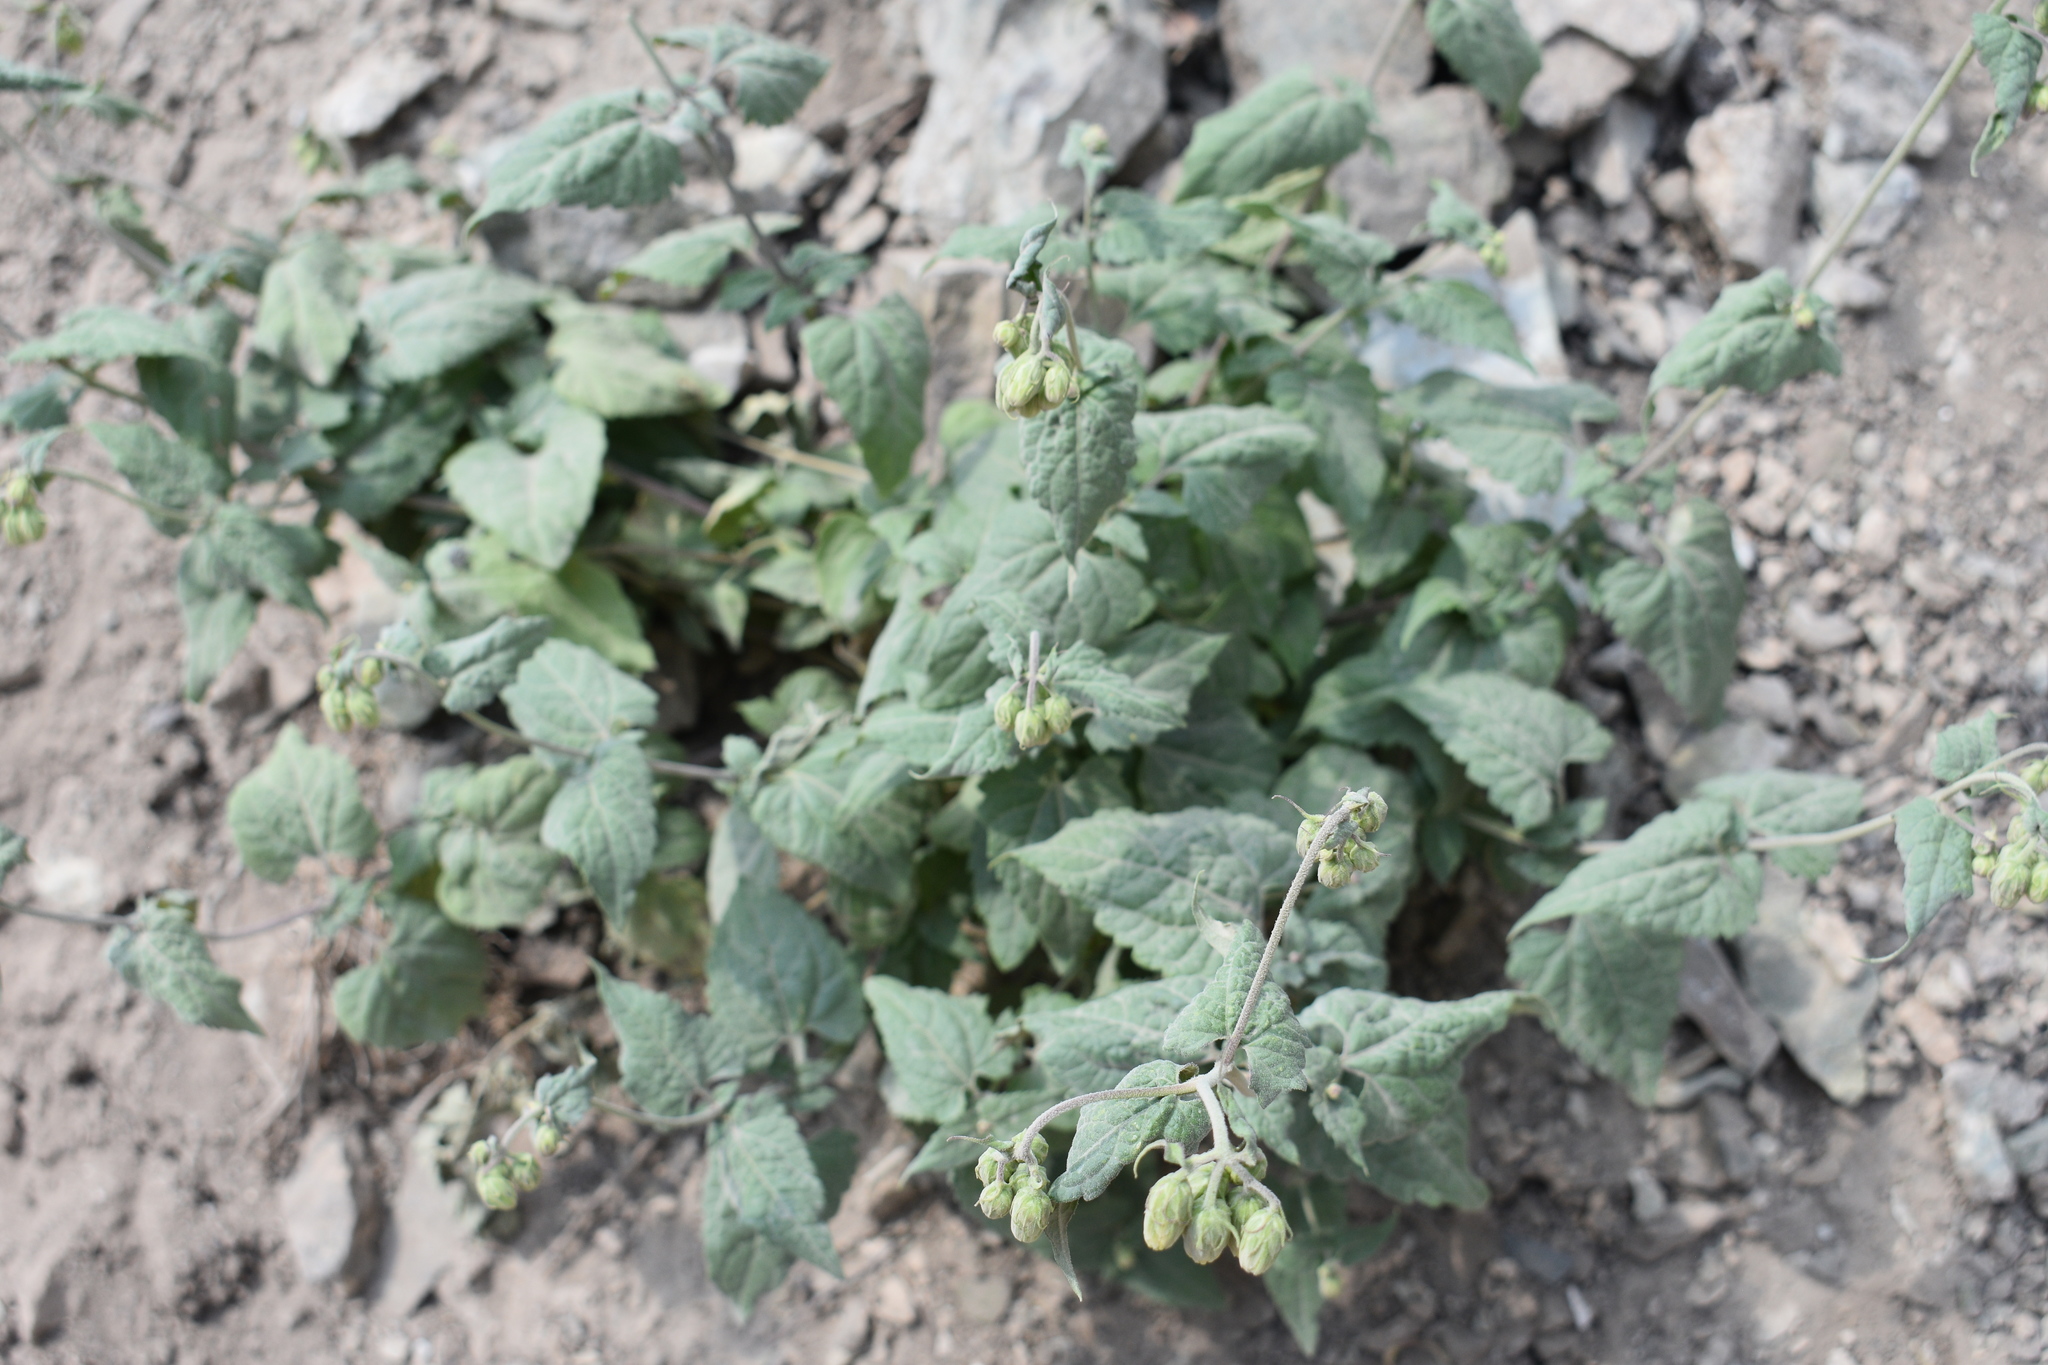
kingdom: Plantae
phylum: Tracheophyta
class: Magnoliopsida
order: Asterales
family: Asteraceae
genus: Brickellia
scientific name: Brickellia grandiflora
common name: Large-flowered brickellia
